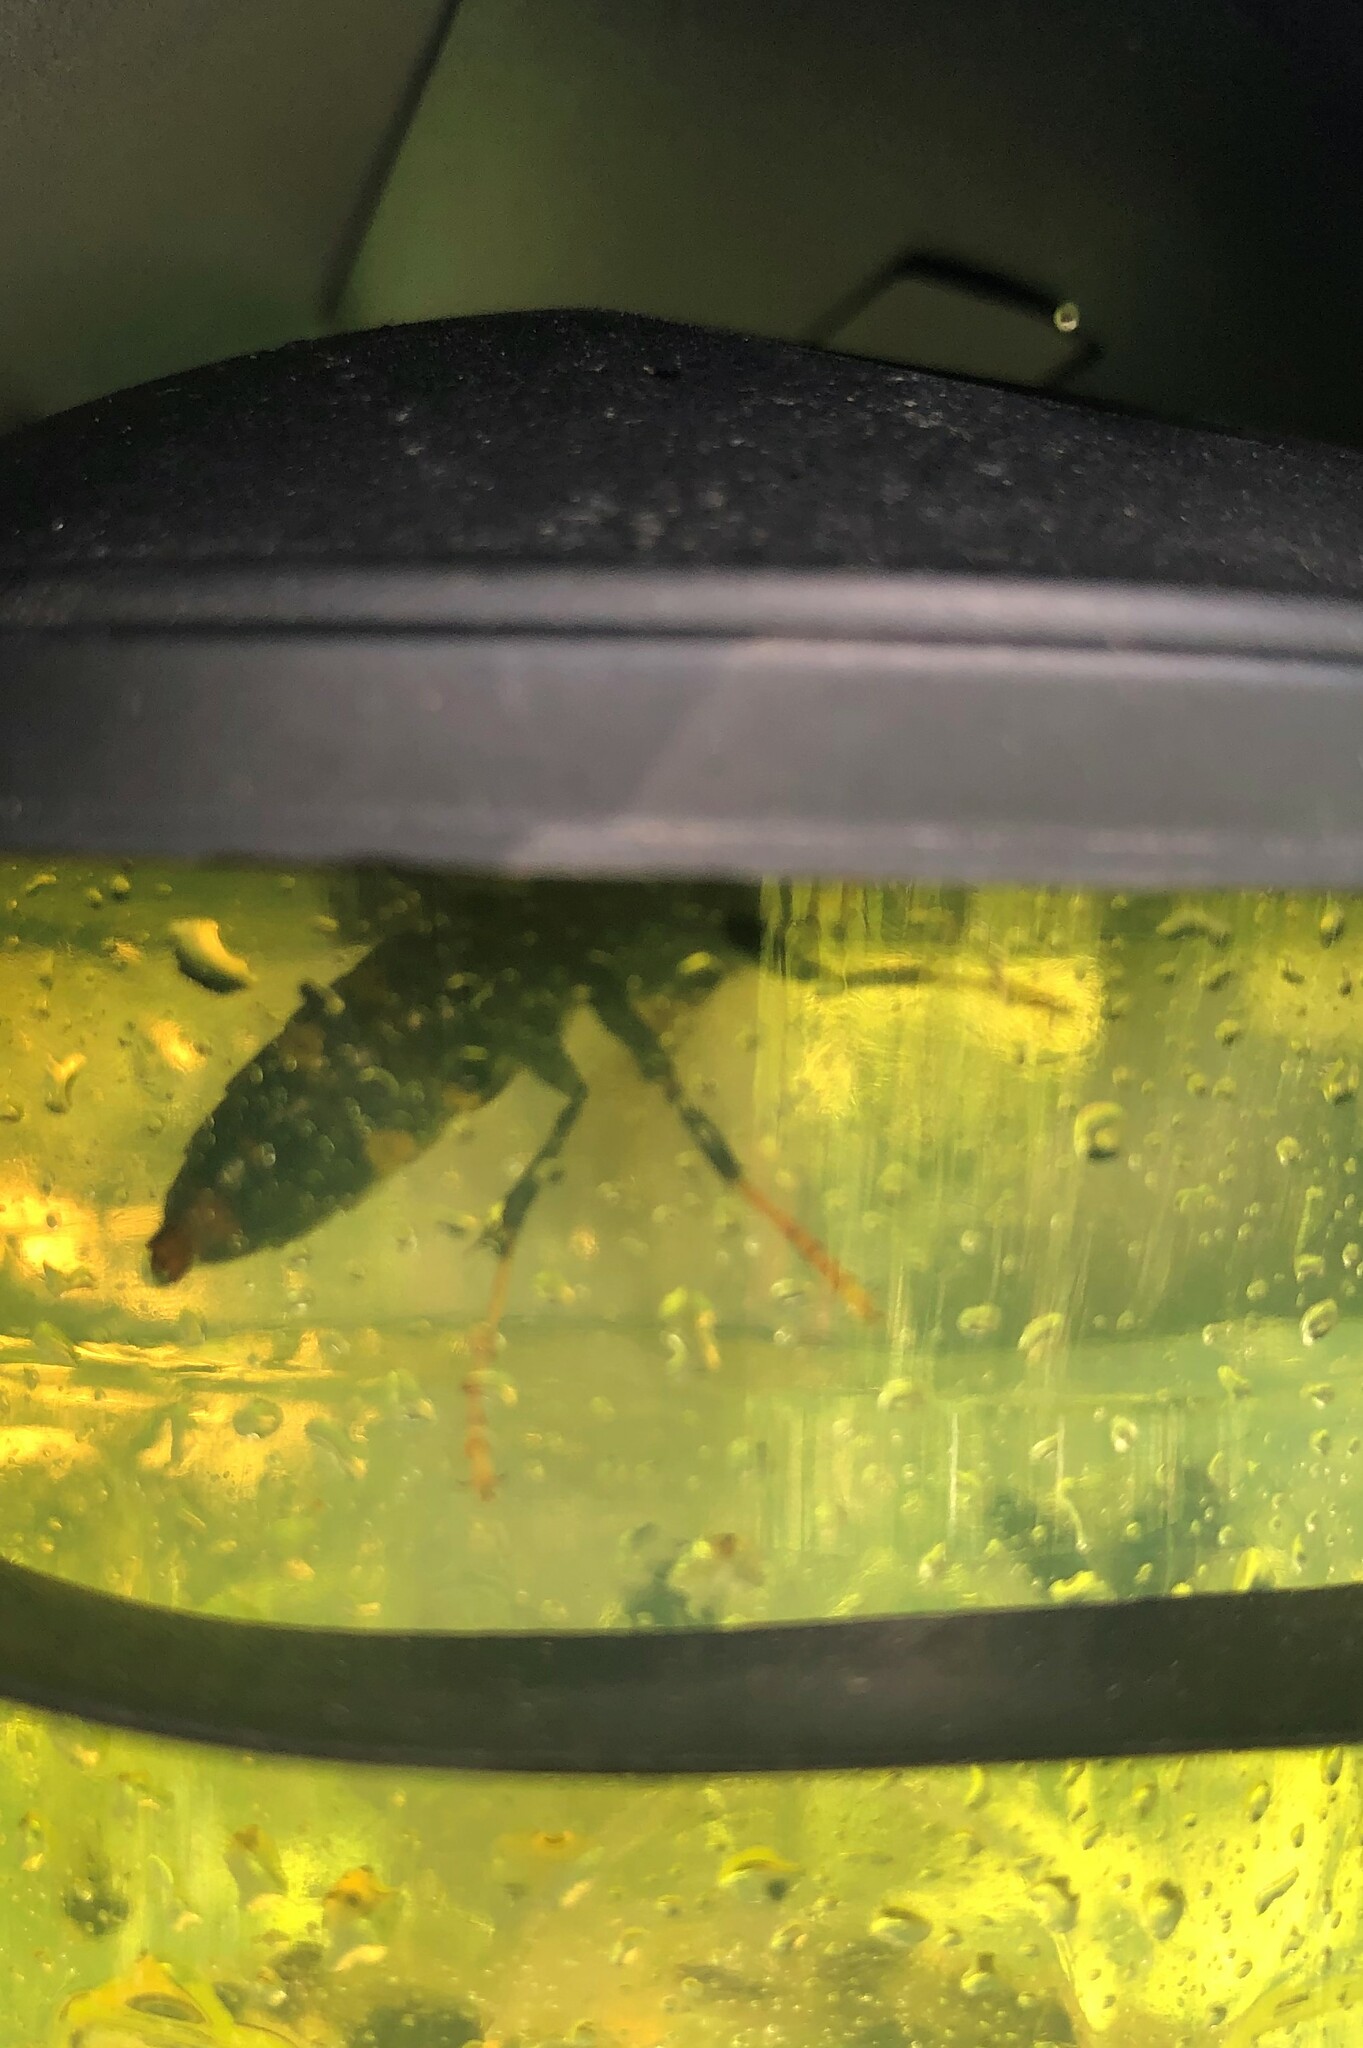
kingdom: Animalia
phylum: Arthropoda
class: Insecta
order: Hymenoptera
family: Vespidae
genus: Vespa
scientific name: Vespa velutina
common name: Asian hornet
